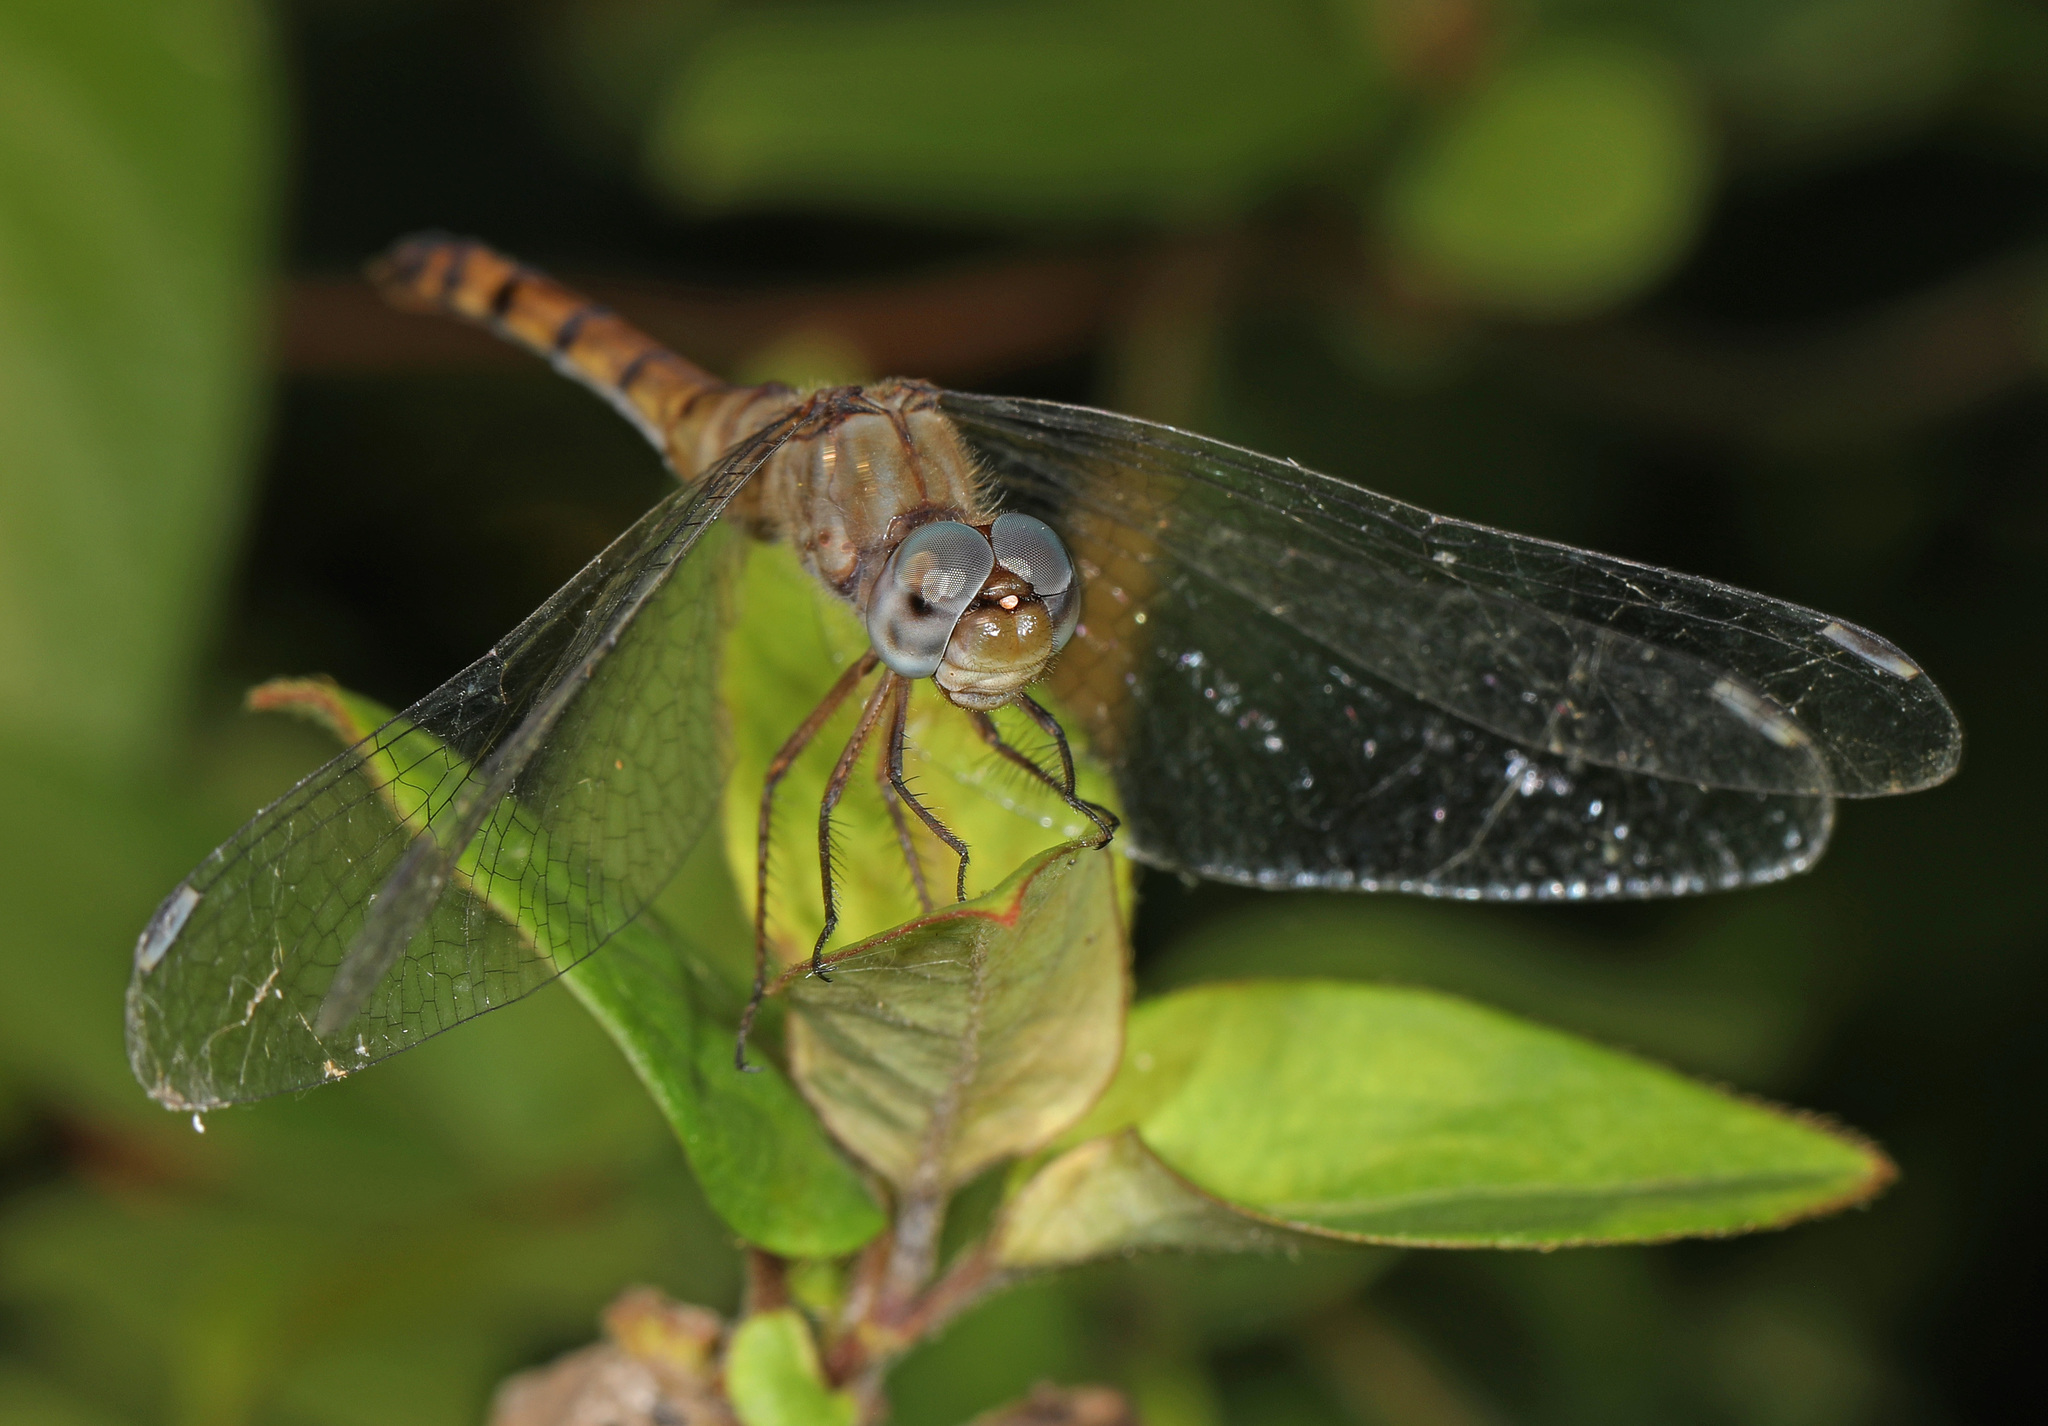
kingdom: Animalia
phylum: Arthropoda
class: Insecta
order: Odonata
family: Libellulidae
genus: Sympetrum
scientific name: Sympetrum ambiguum
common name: Blue-faced meadowhawk
